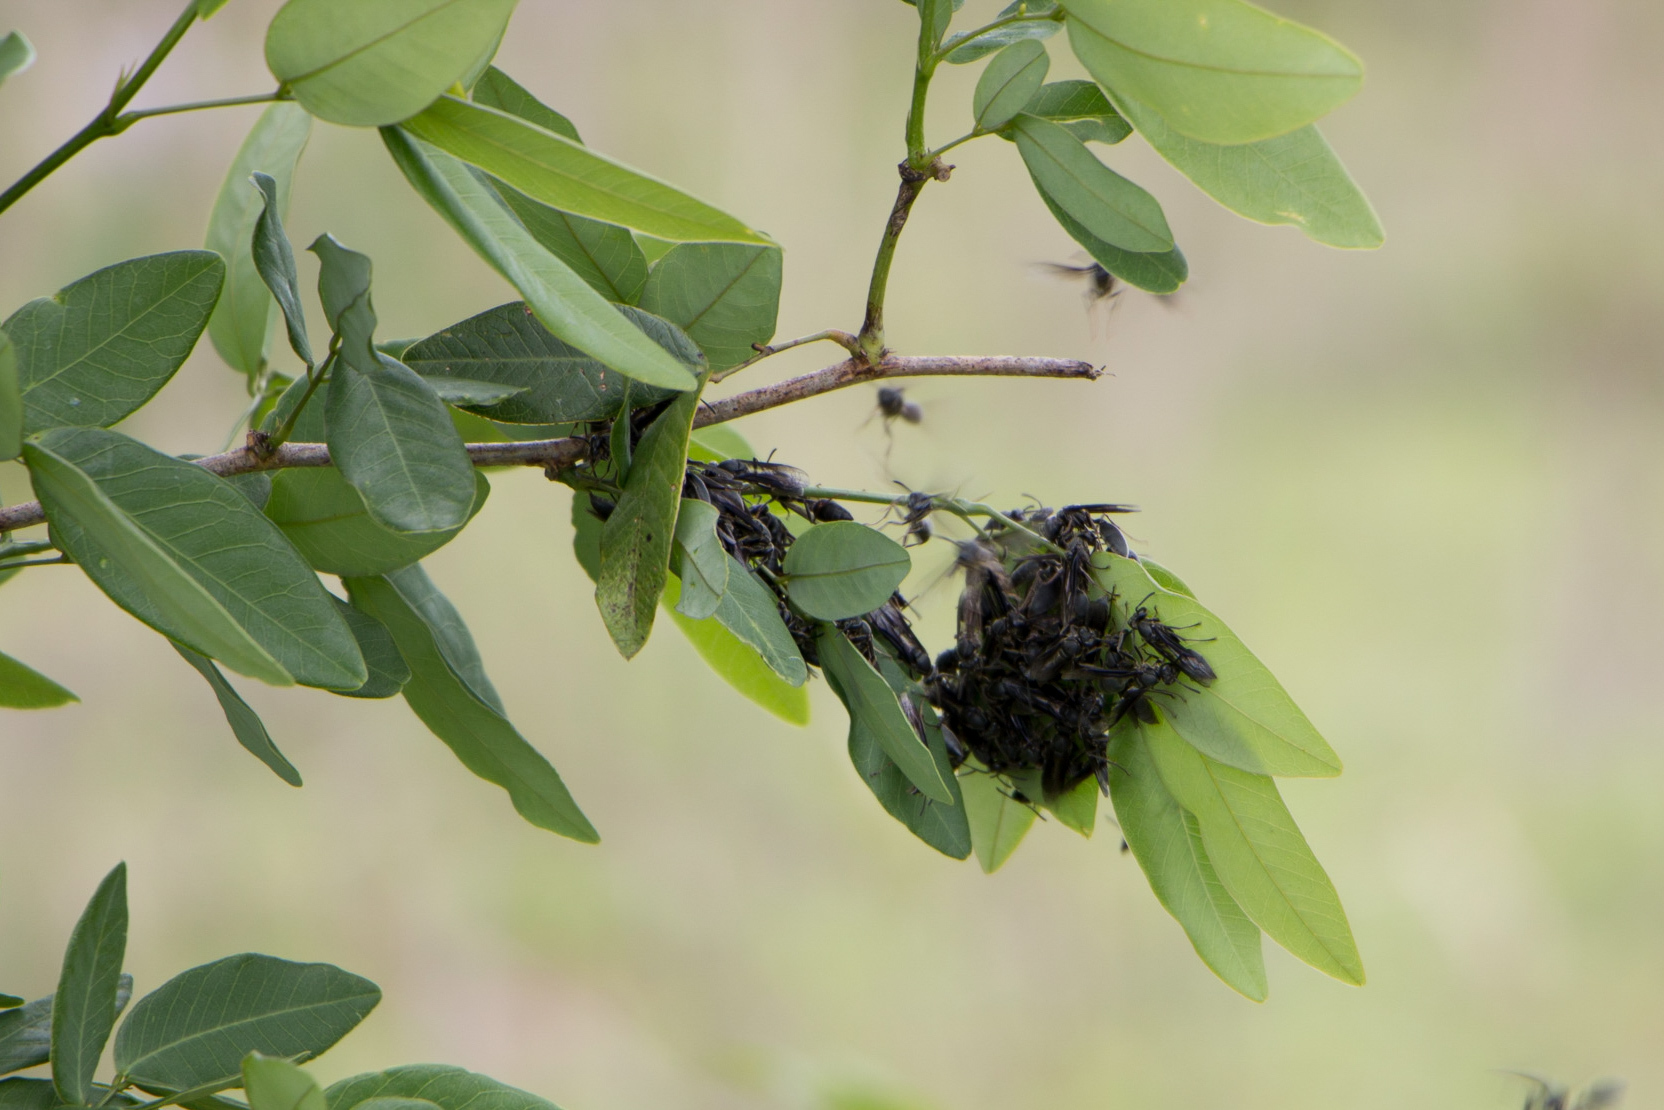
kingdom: Animalia
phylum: Arthropoda
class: Insecta
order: Hymenoptera
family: Eumenidae
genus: Polybia
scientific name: Polybia ignobilis
